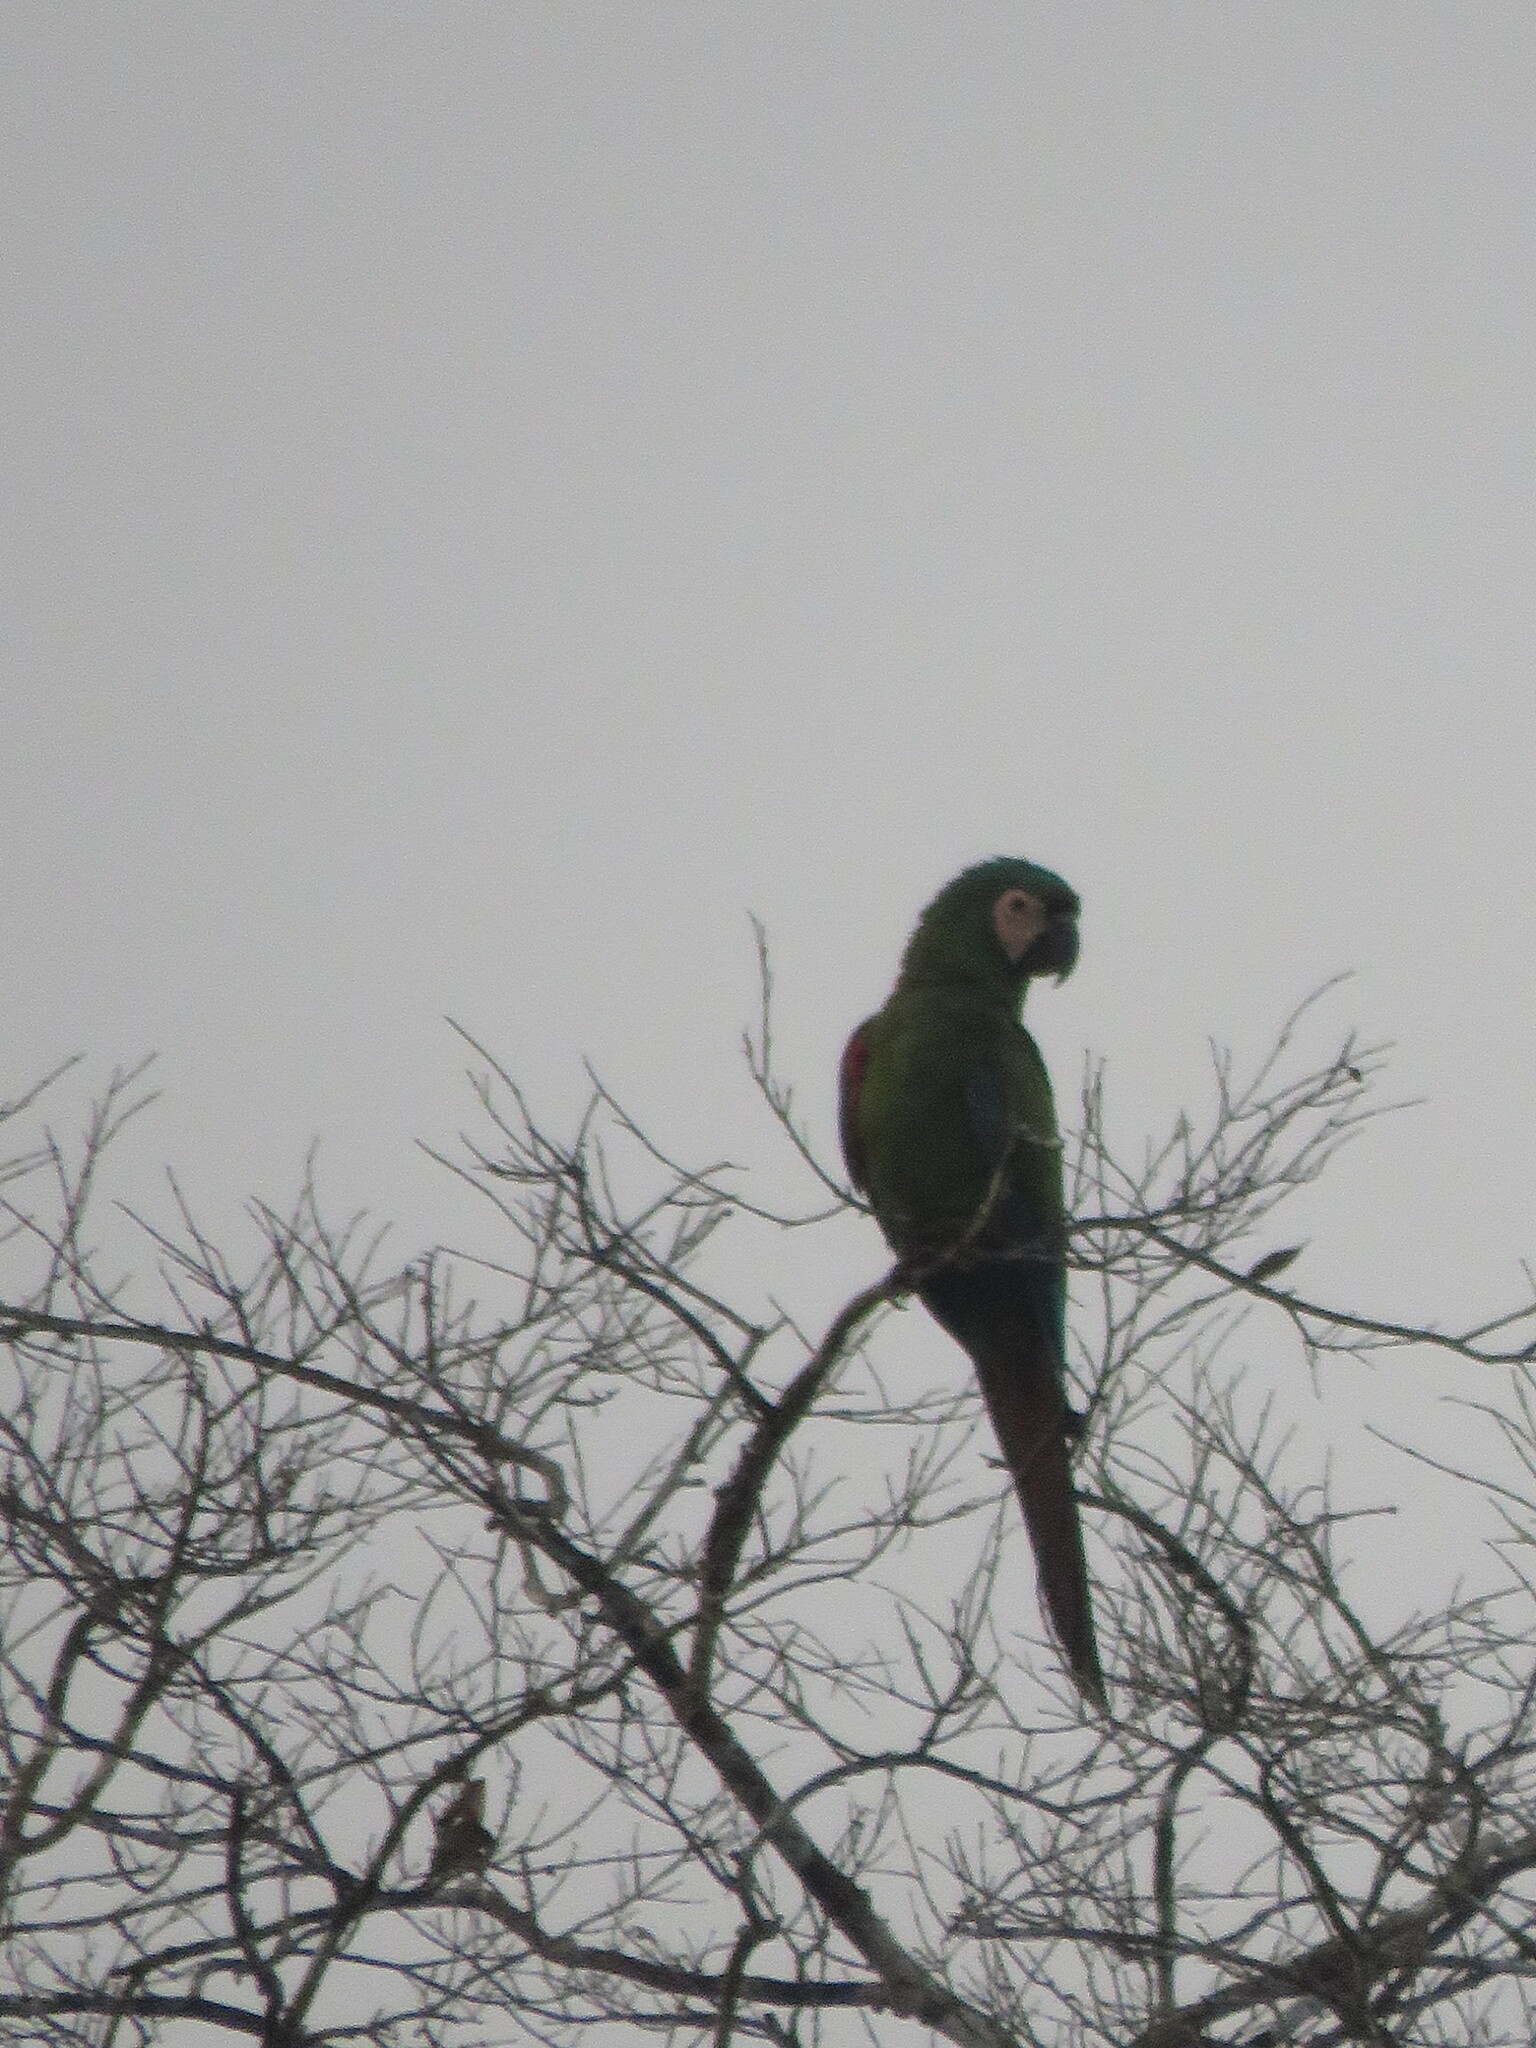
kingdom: Animalia
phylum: Chordata
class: Aves
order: Psittaciformes
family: Psittacidae
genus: Ara
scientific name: Ara severus
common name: Chestnut-fronted macaw
